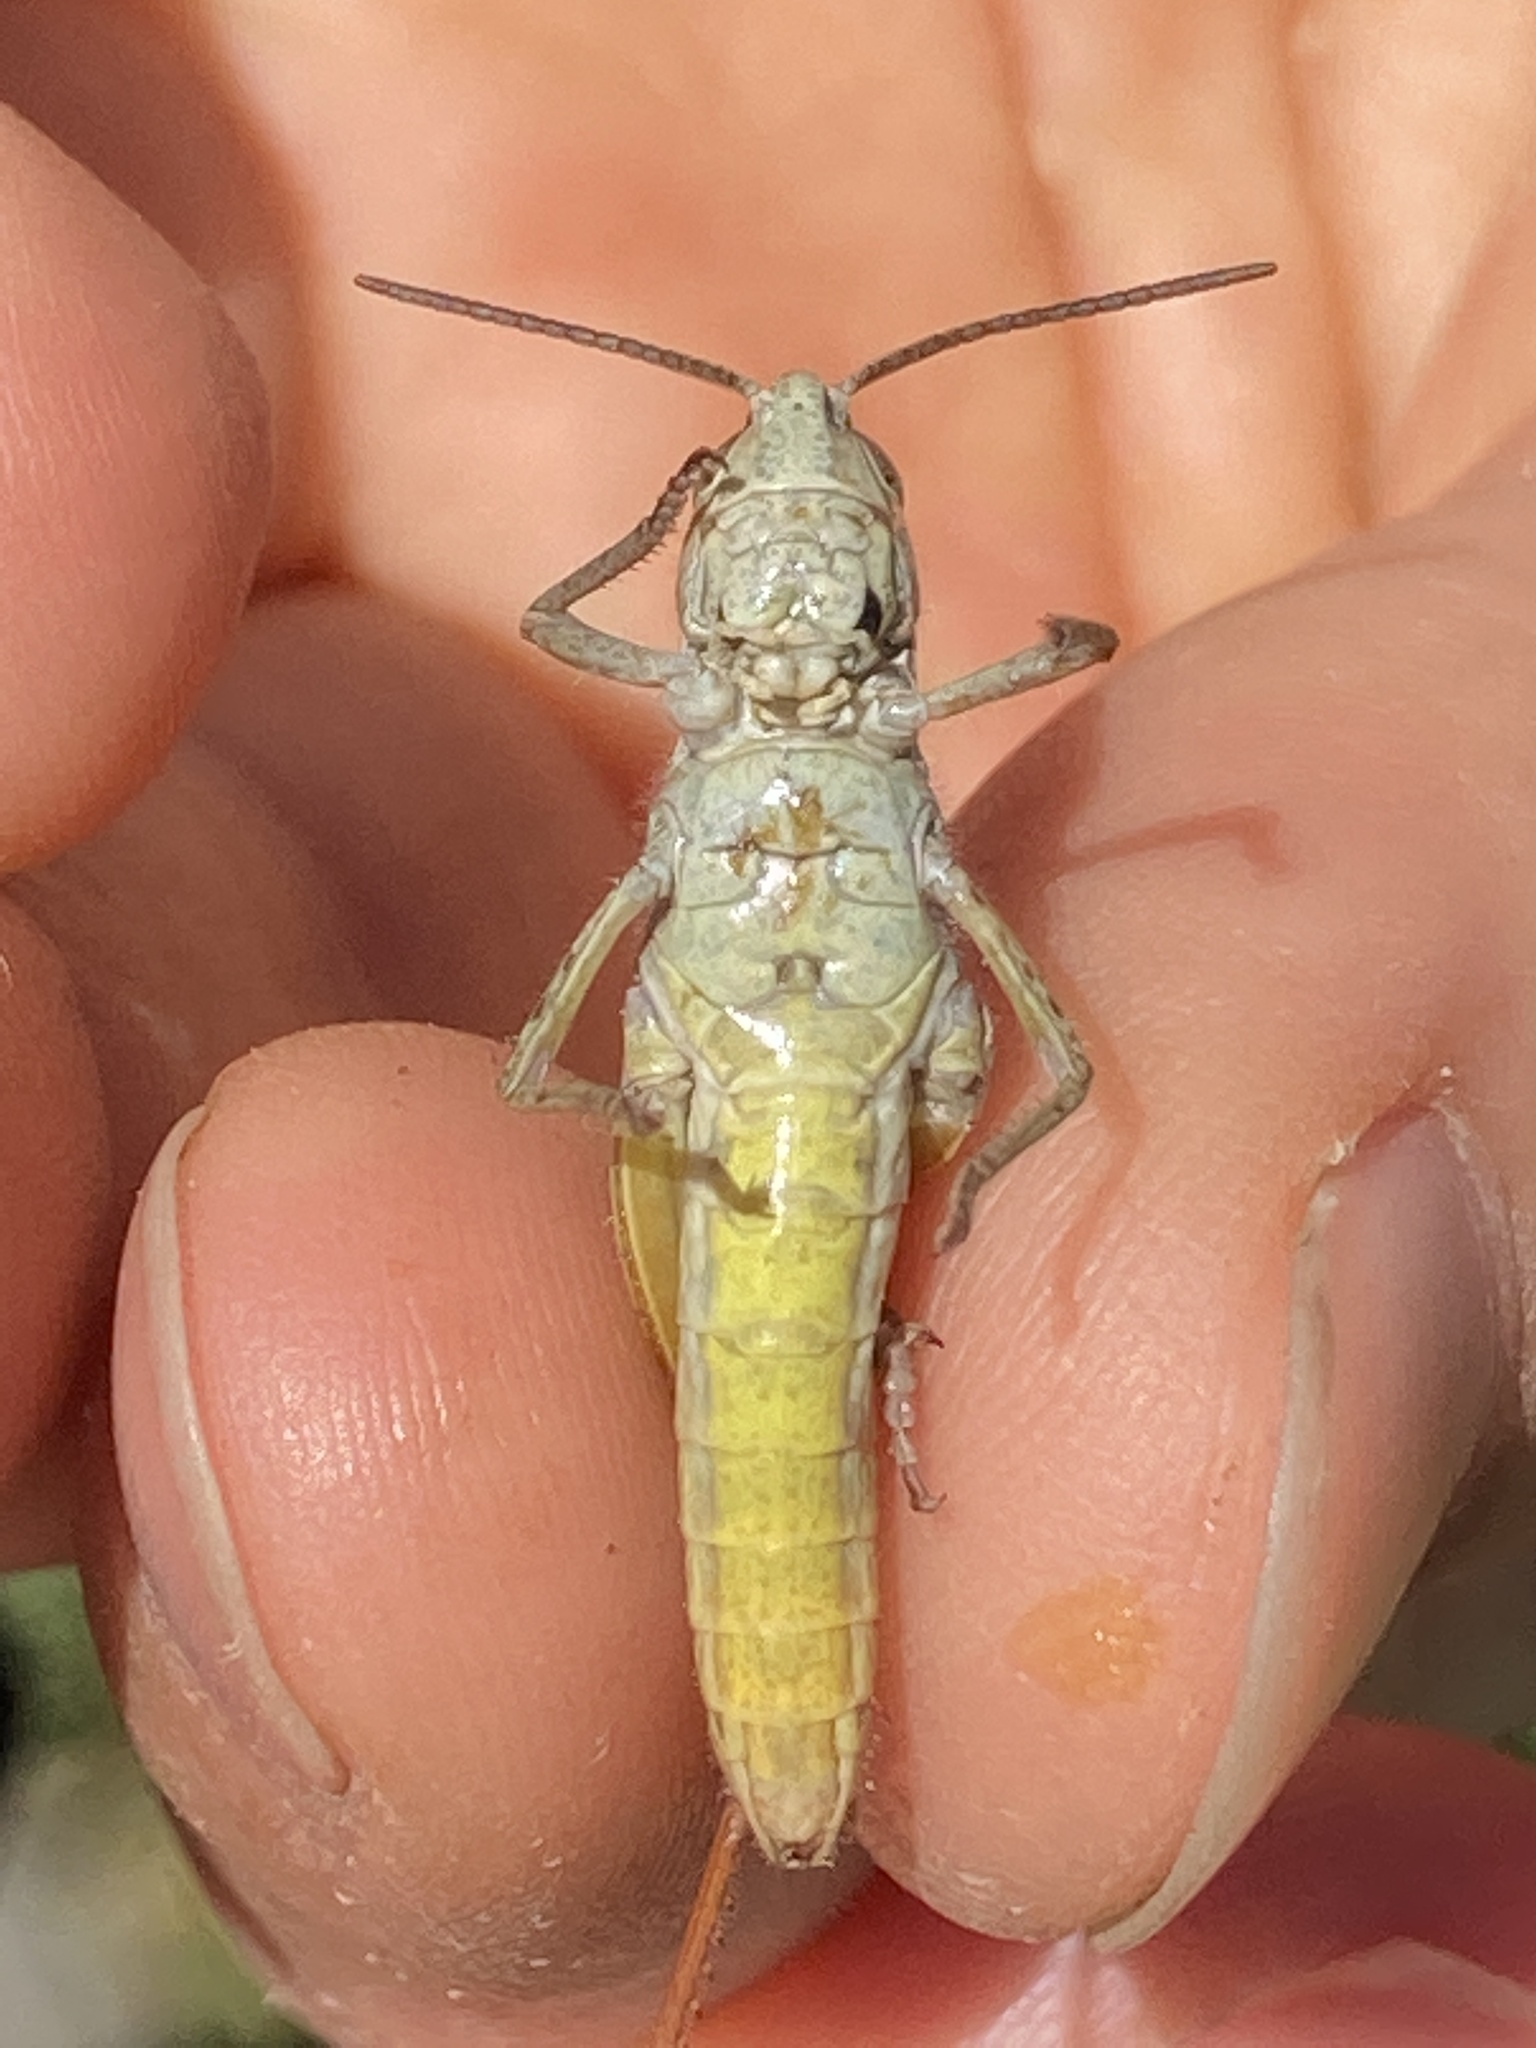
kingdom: Animalia
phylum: Arthropoda
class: Insecta
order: Orthoptera
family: Acrididae
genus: Chorthippus
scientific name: Chorthippus apricarius
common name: Upland field grasshopper
